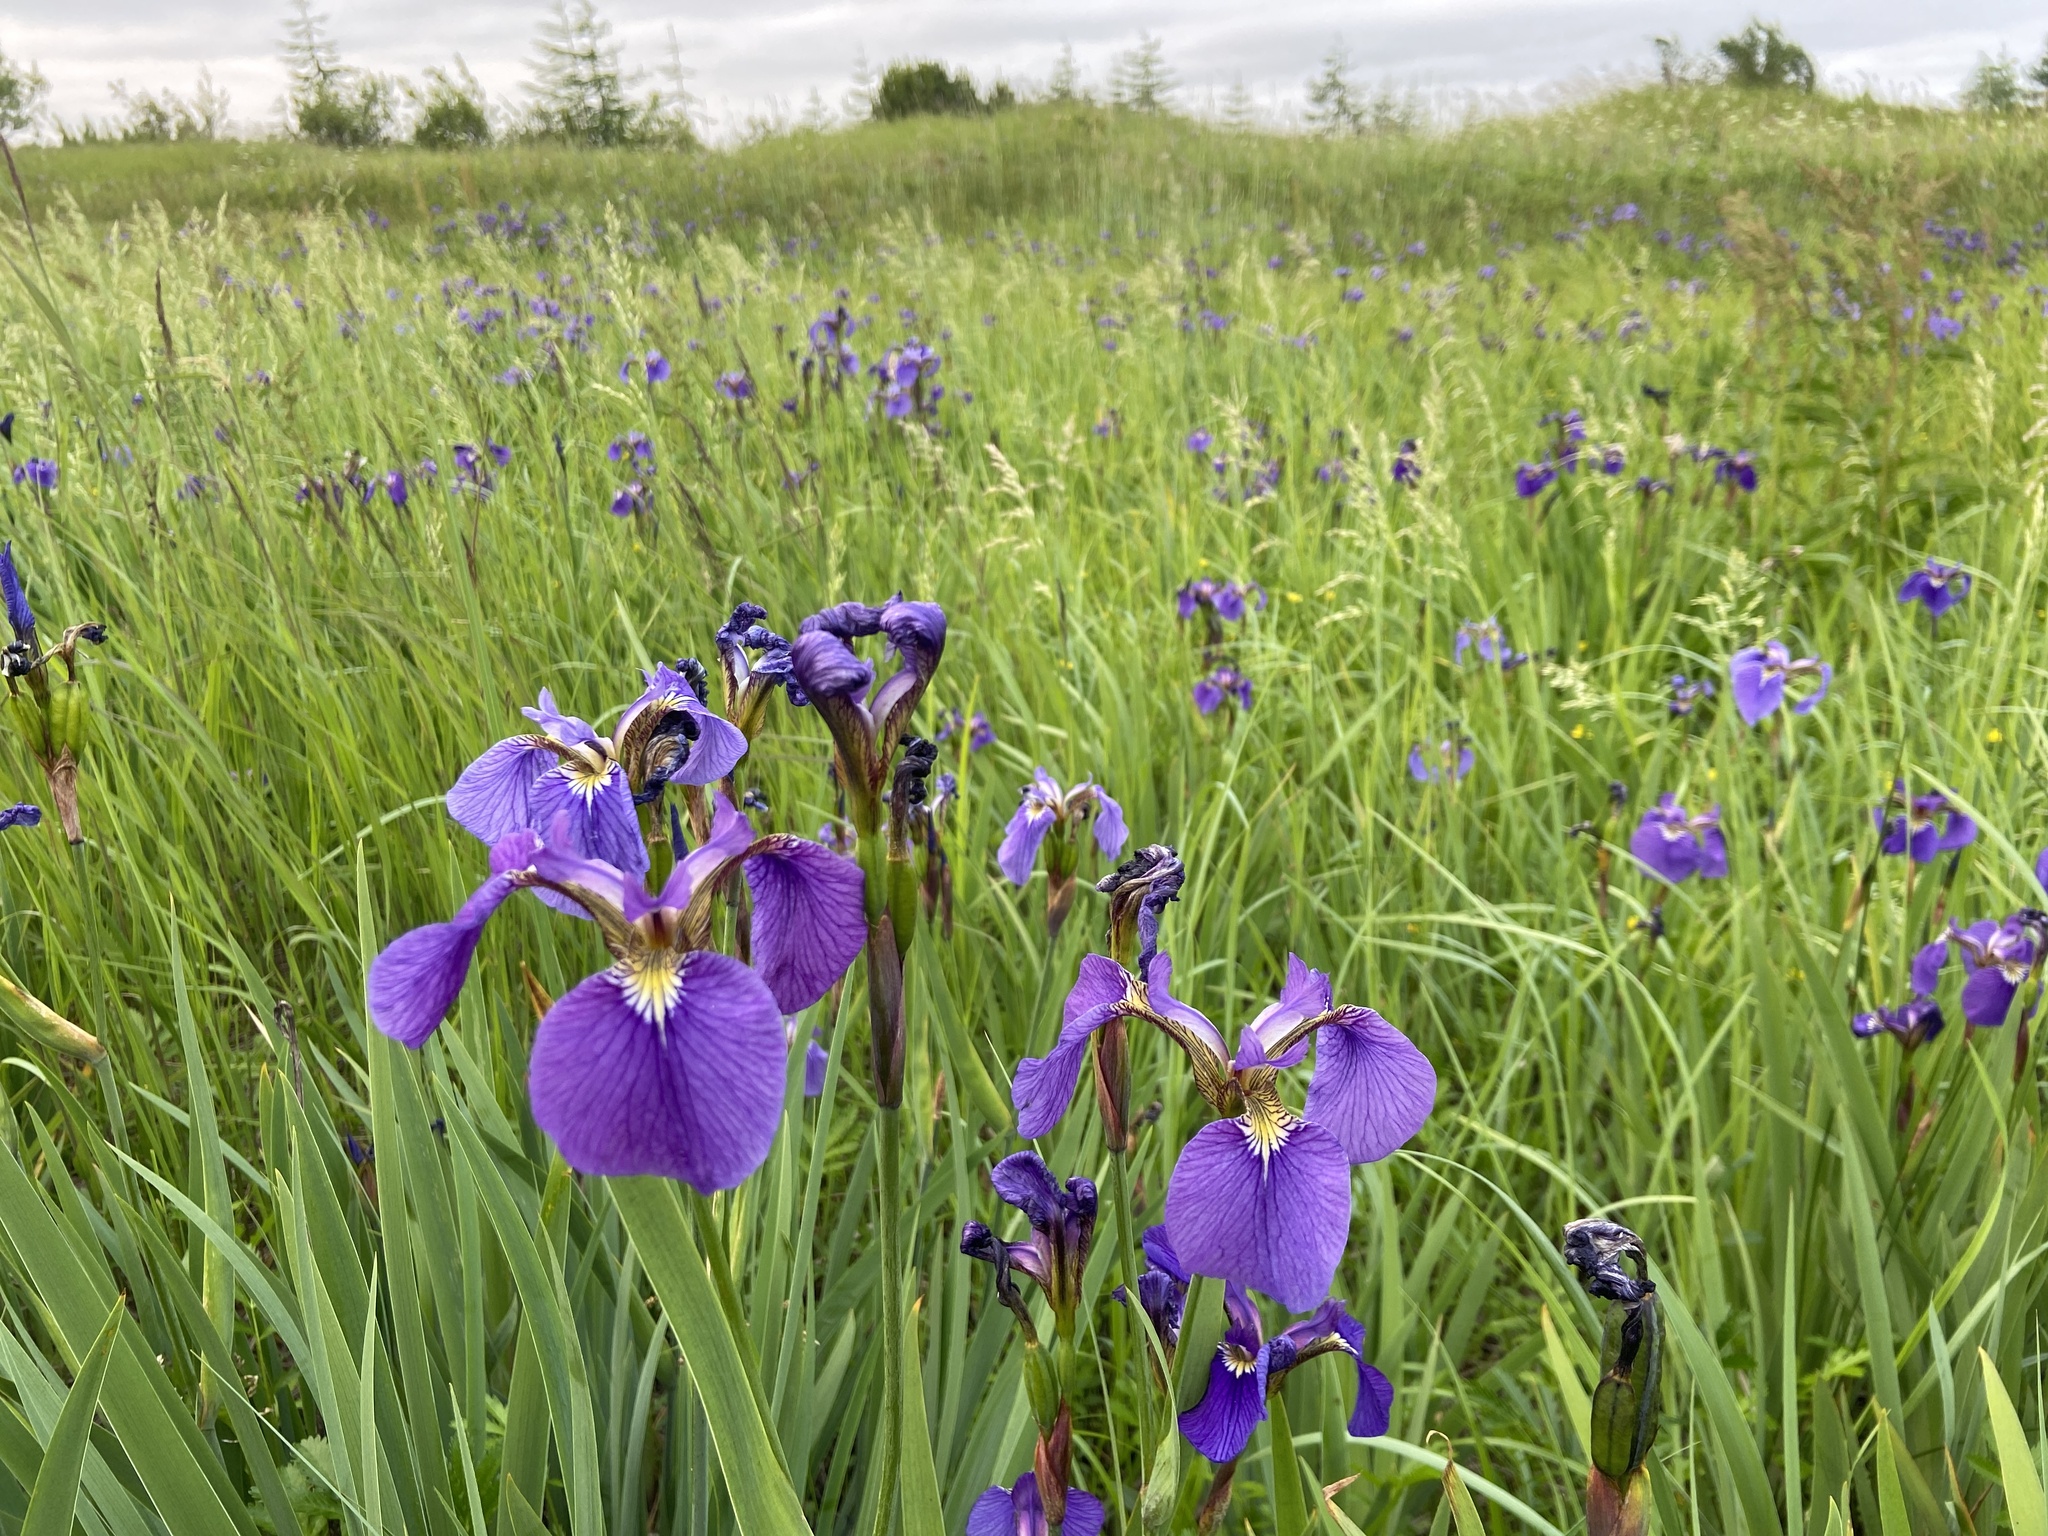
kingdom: Plantae
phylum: Tracheophyta
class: Liliopsida
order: Asparagales
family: Iridaceae
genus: Iris
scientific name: Iris setosa
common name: Arctic blue flag
